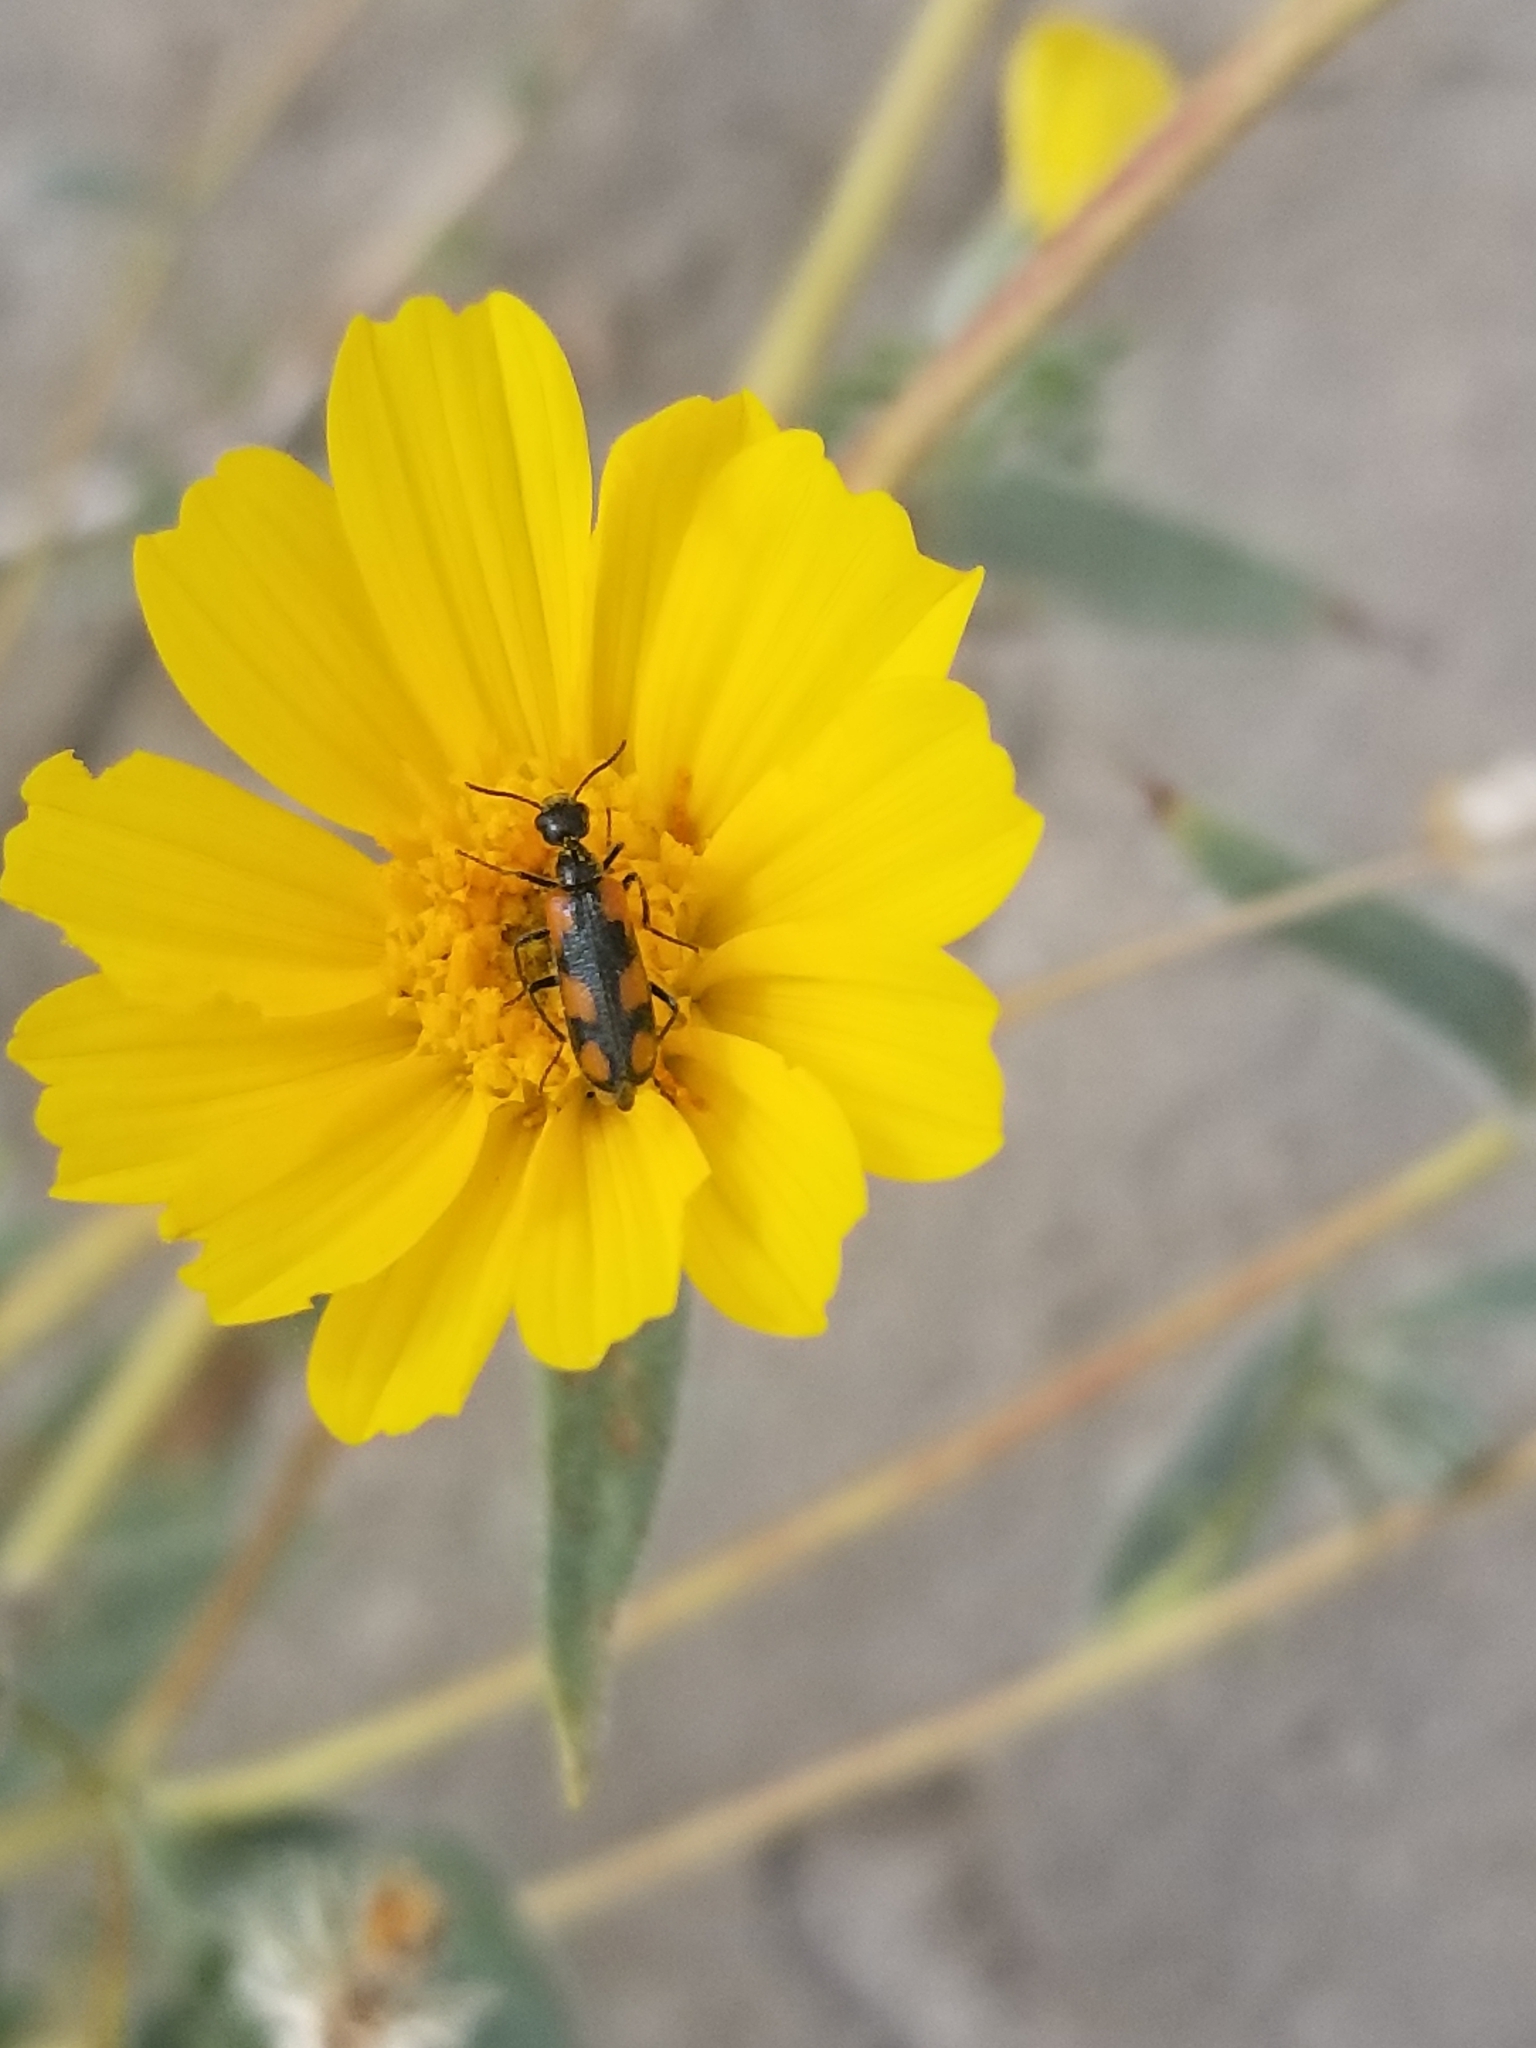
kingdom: Animalia
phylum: Arthropoda
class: Insecta
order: Coleoptera
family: Meloidae
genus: Eupompha
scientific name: Eupompha elegans
